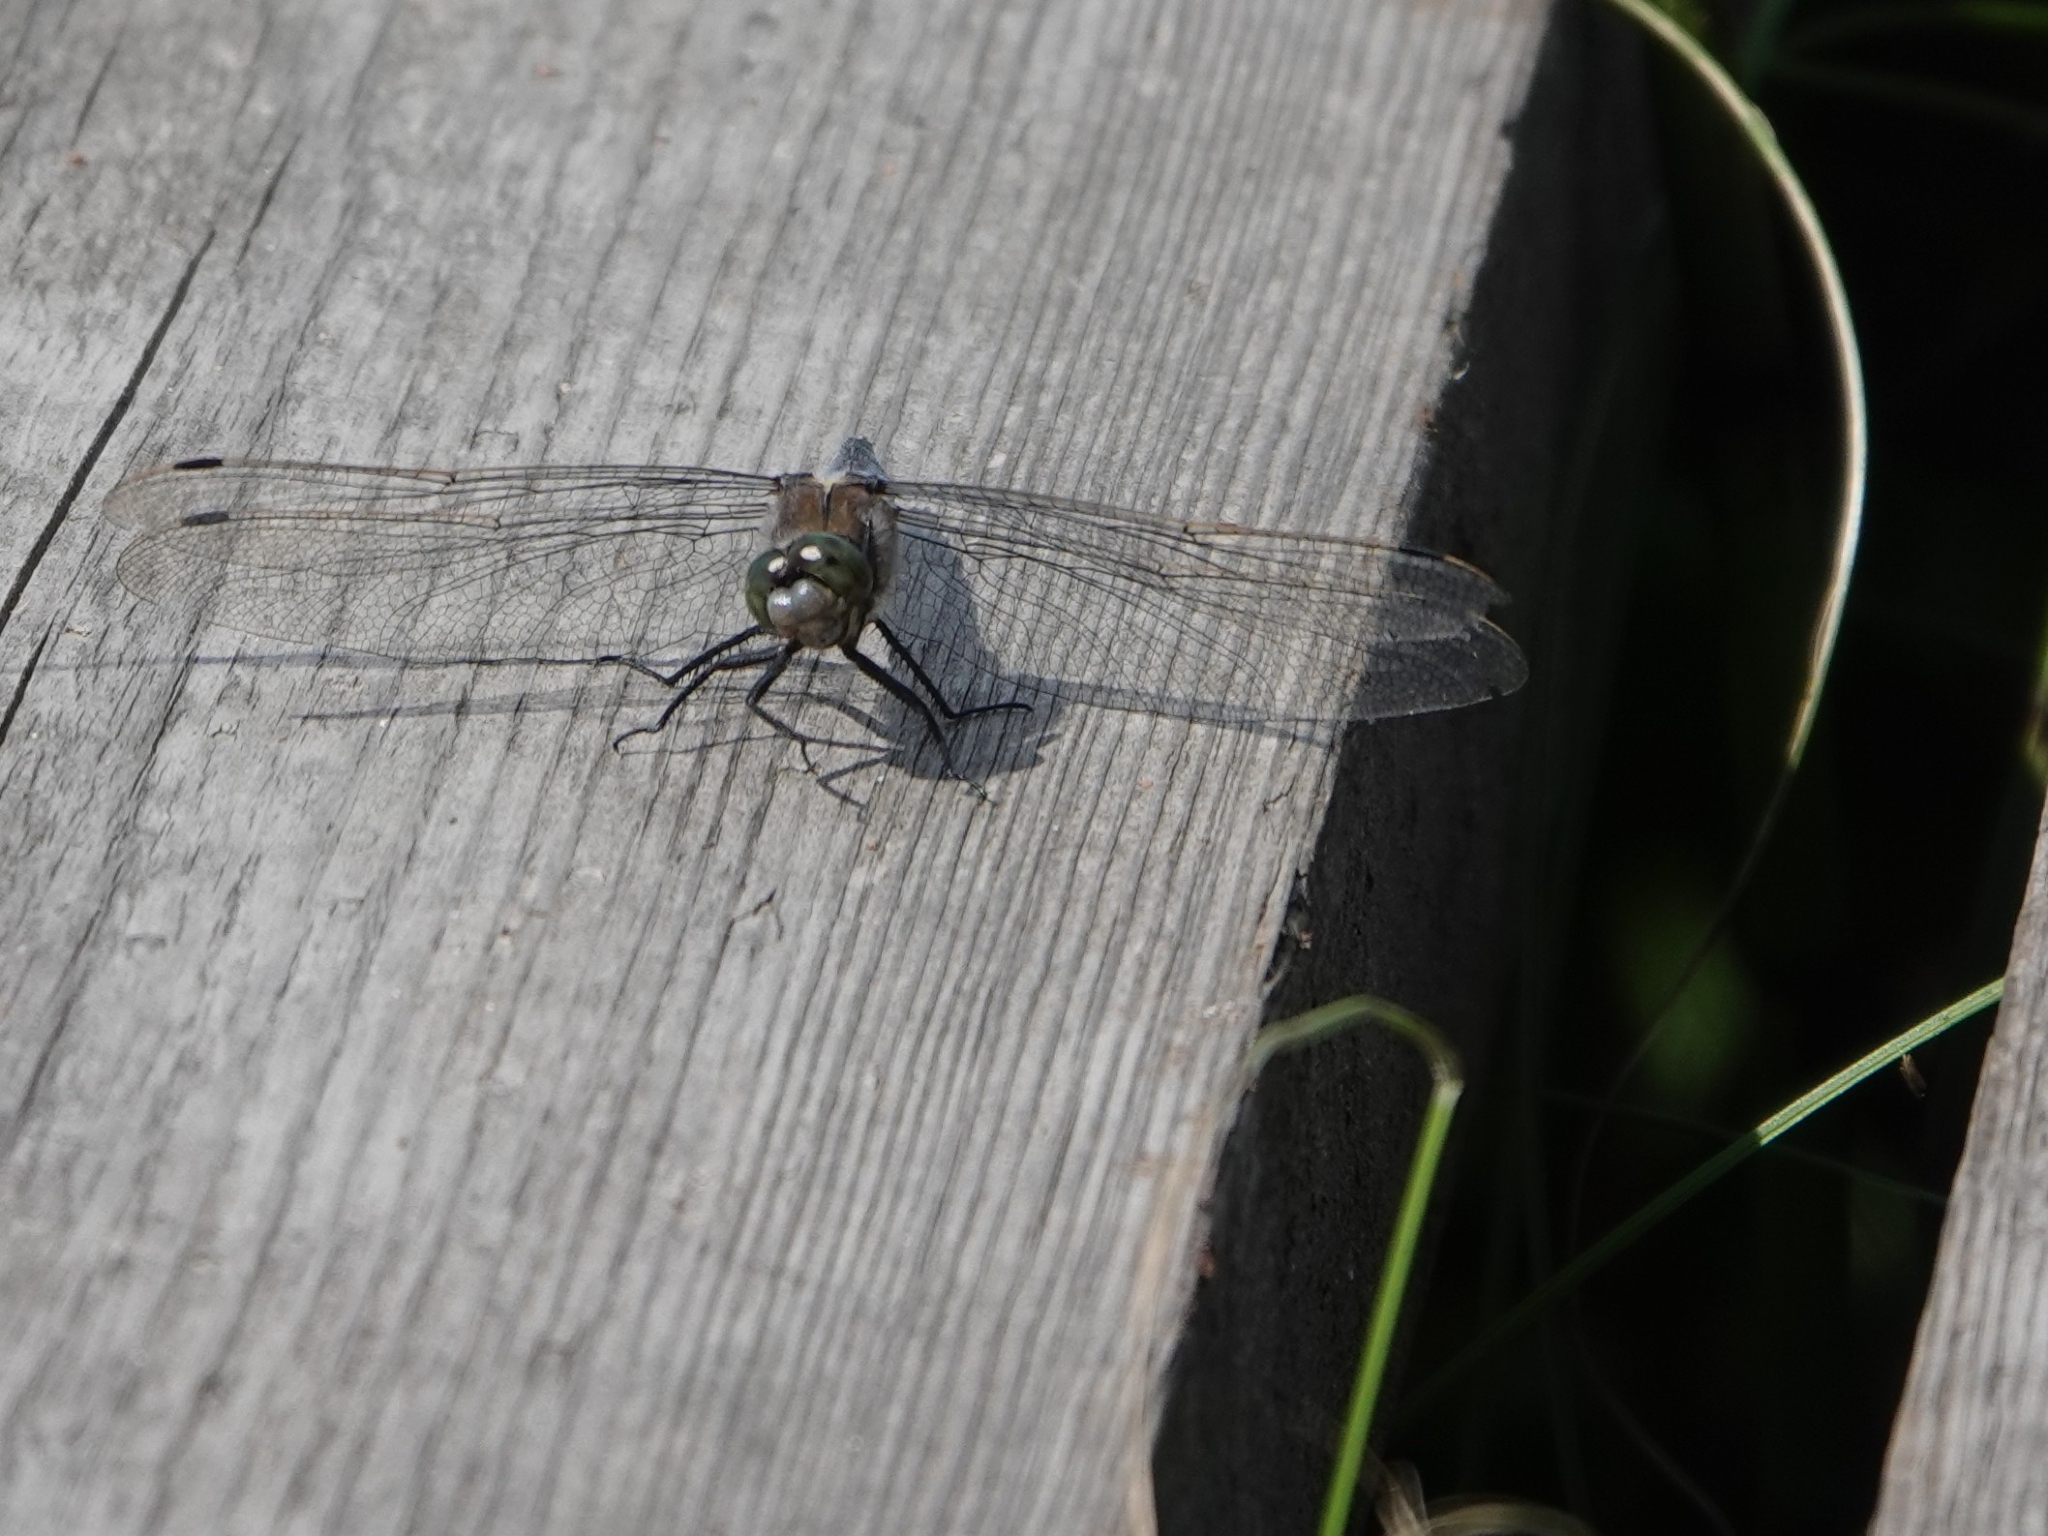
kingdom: Animalia
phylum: Arthropoda
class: Insecta
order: Odonata
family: Libellulidae
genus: Orthetrum
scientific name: Orthetrum cancellatum
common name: Black-tailed skimmer
